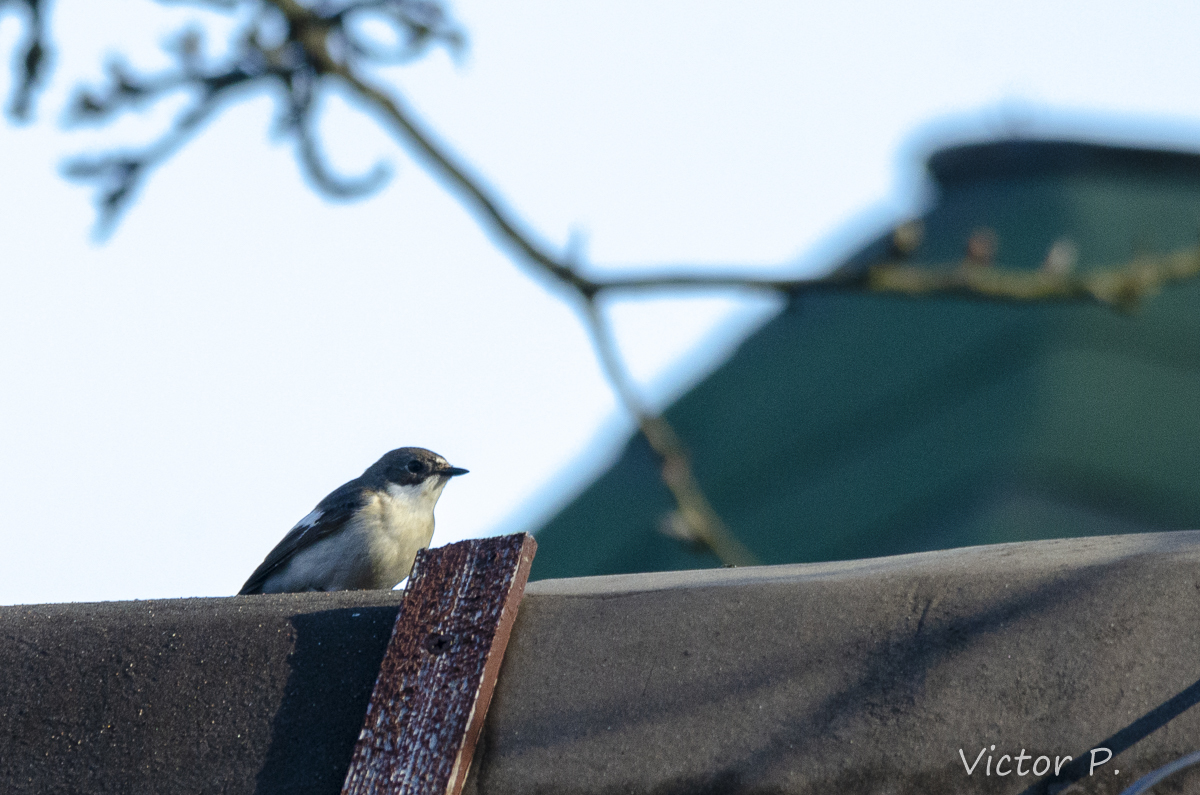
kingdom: Animalia
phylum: Chordata
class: Aves
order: Passeriformes
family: Muscicapidae
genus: Ficedula
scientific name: Ficedula hypoleuca
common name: European pied flycatcher
